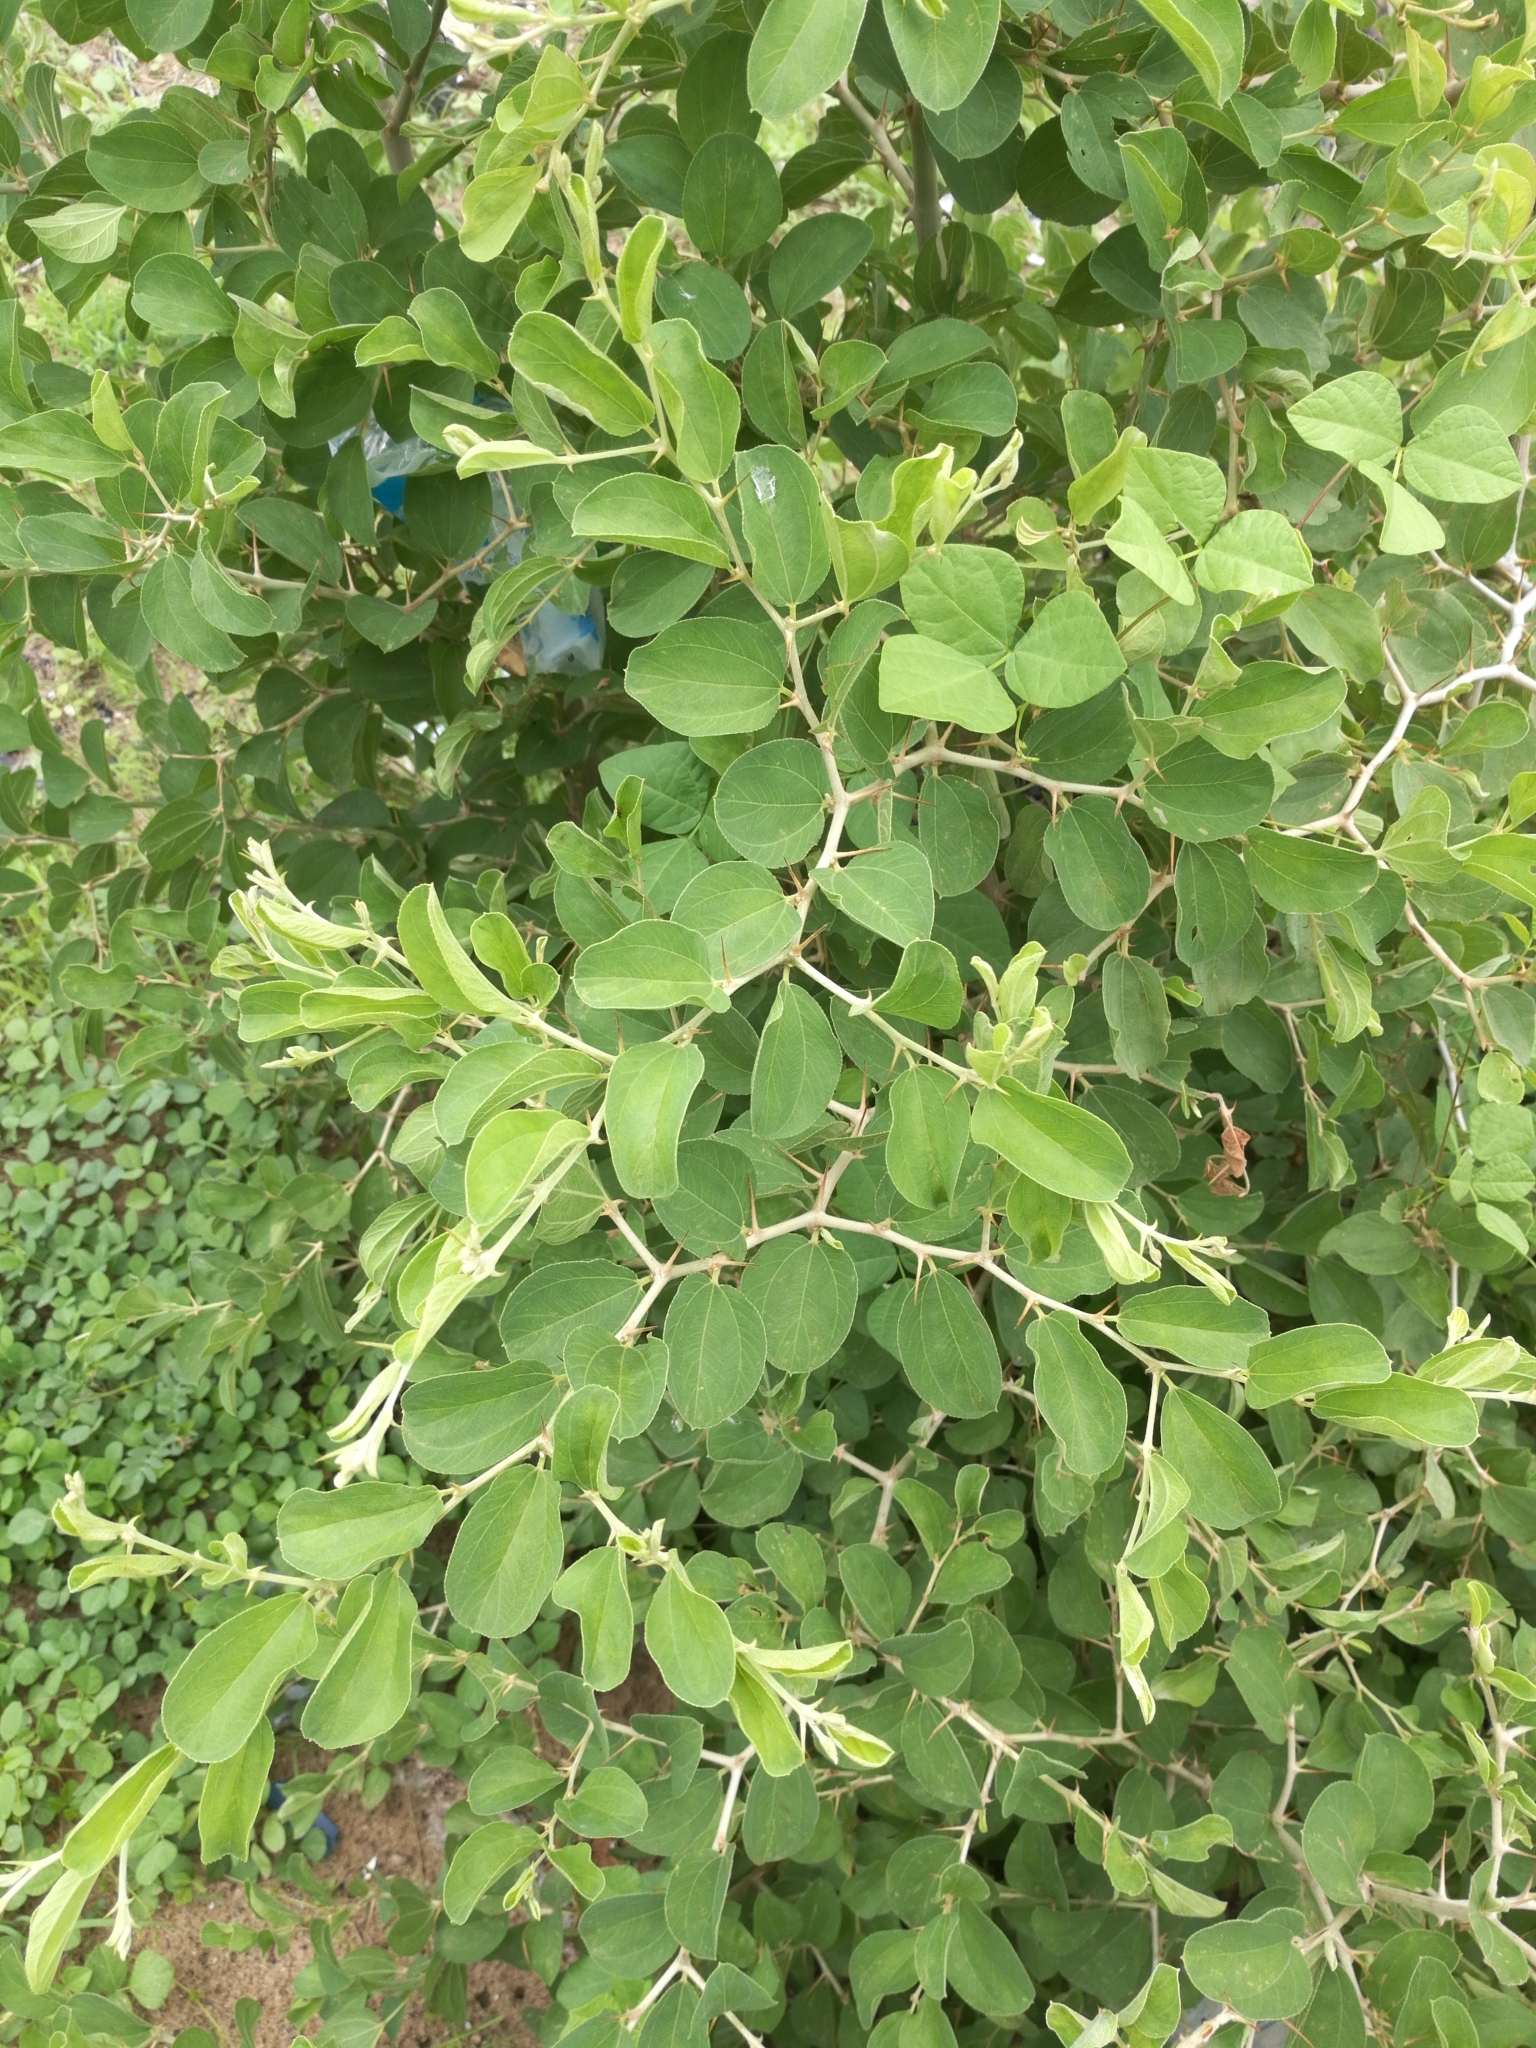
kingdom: Plantae
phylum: Tracheophyta
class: Magnoliopsida
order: Rosales
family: Rhamnaceae
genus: Ziziphus
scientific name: Ziziphus mauritiana
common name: Indian jujube
